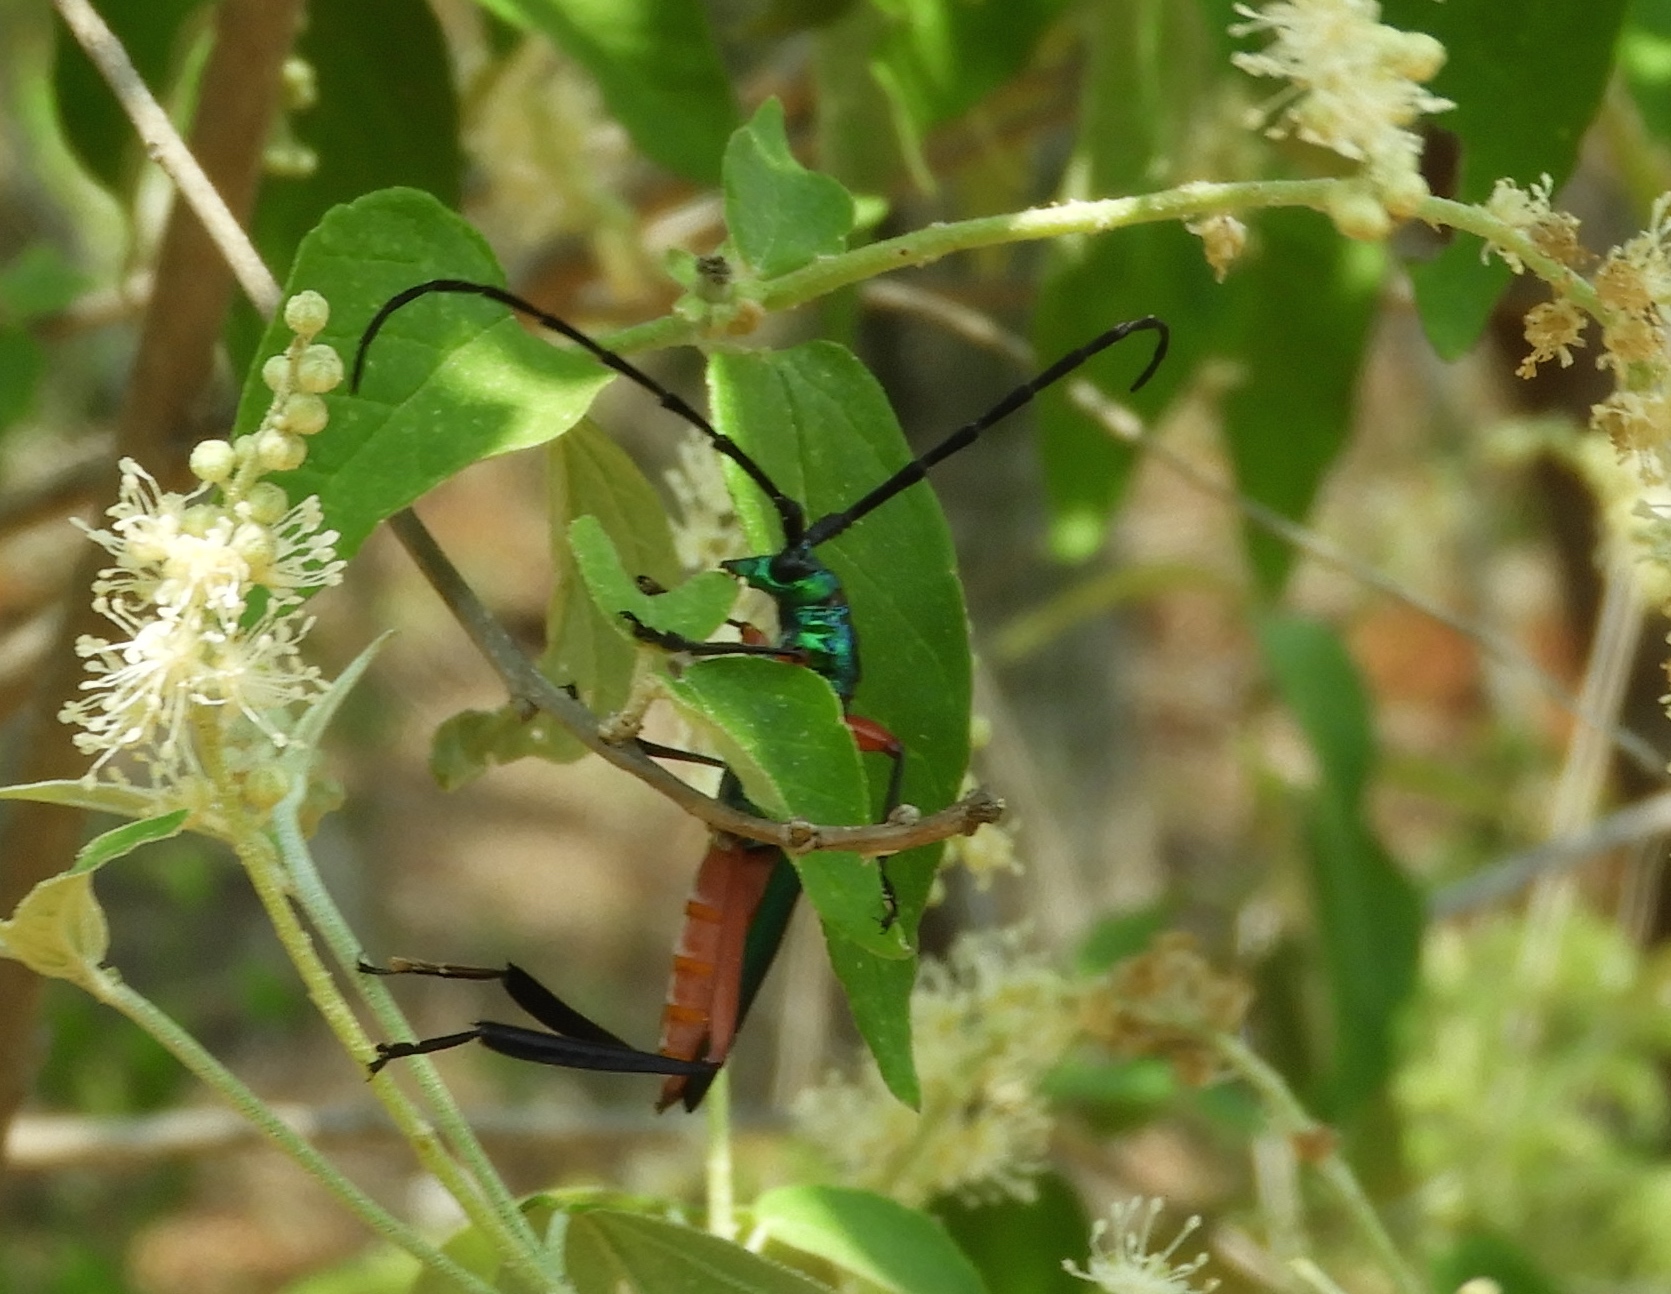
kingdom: Animalia
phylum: Arthropoda
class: Insecta
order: Coleoptera
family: Cerambycidae
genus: Plinthocoelium
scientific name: Plinthocoelium chilensis
